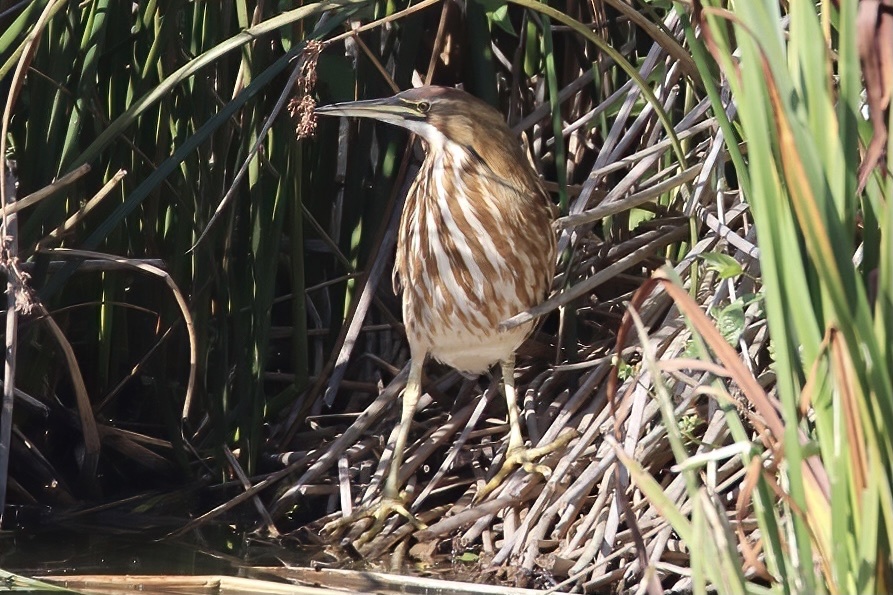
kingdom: Animalia
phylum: Chordata
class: Aves
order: Pelecaniformes
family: Ardeidae
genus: Botaurus
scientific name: Botaurus lentiginosus
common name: American bittern
